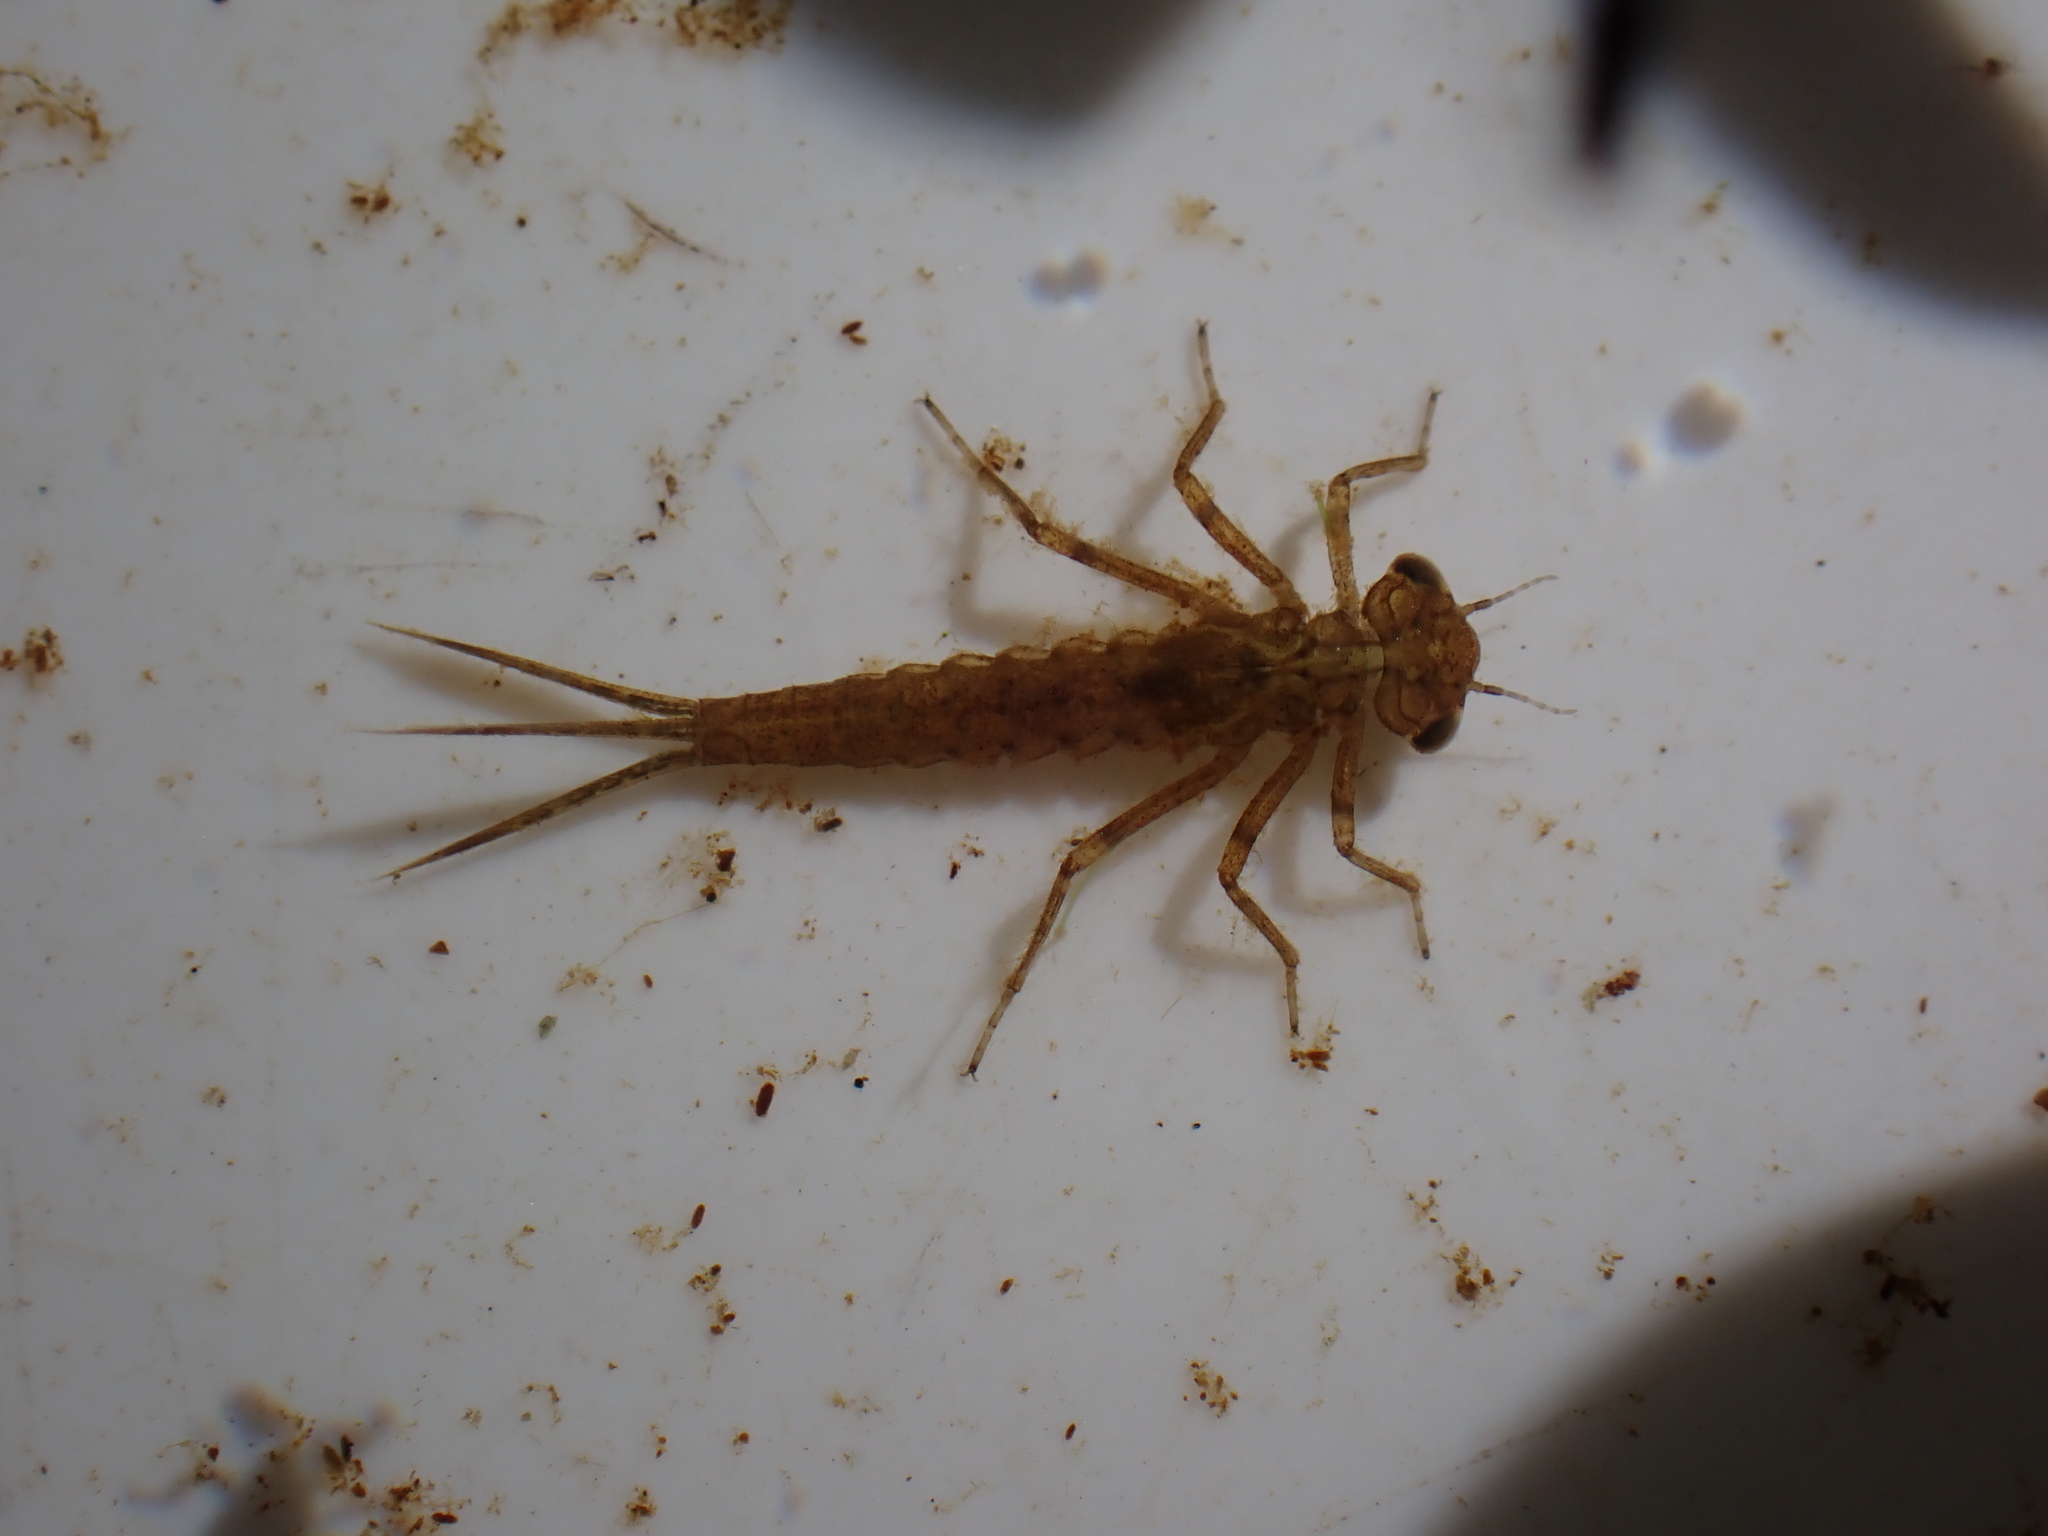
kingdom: Animalia
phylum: Arthropoda
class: Insecta
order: Odonata
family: Coenagrionidae
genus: Xanthocnemis
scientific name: Xanthocnemis zealandica
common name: Common redcoat damselfly
